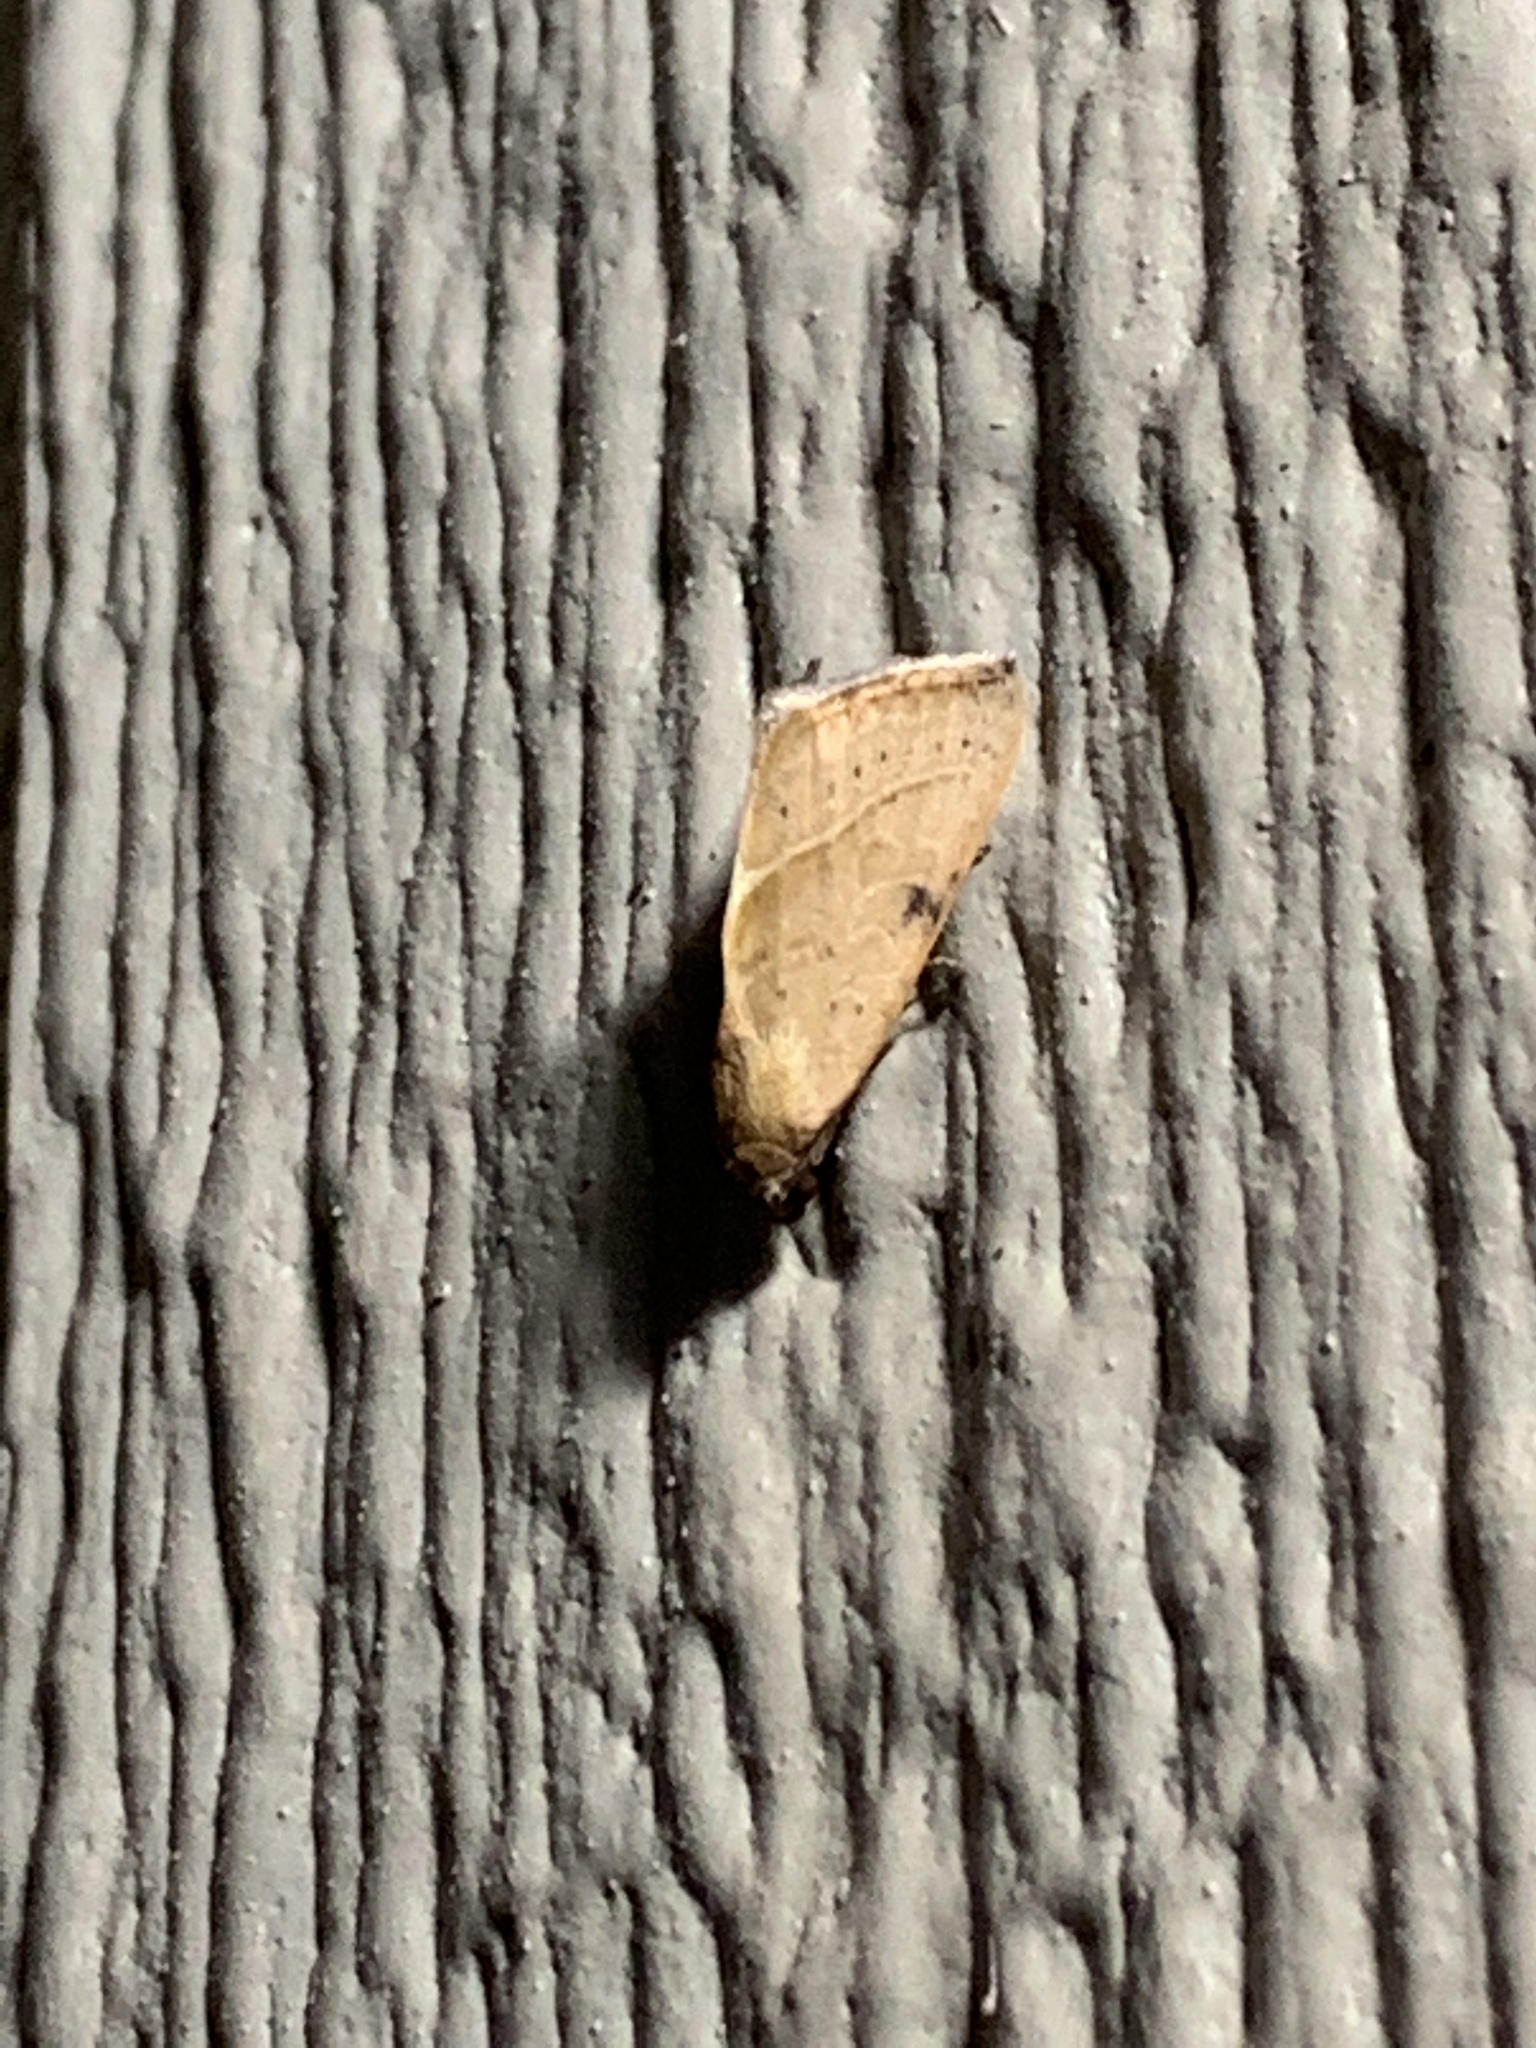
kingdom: Animalia
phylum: Arthropoda
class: Insecta
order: Lepidoptera
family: Noctuidae
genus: Galgula
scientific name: Galgula partita
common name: Wedgeling
